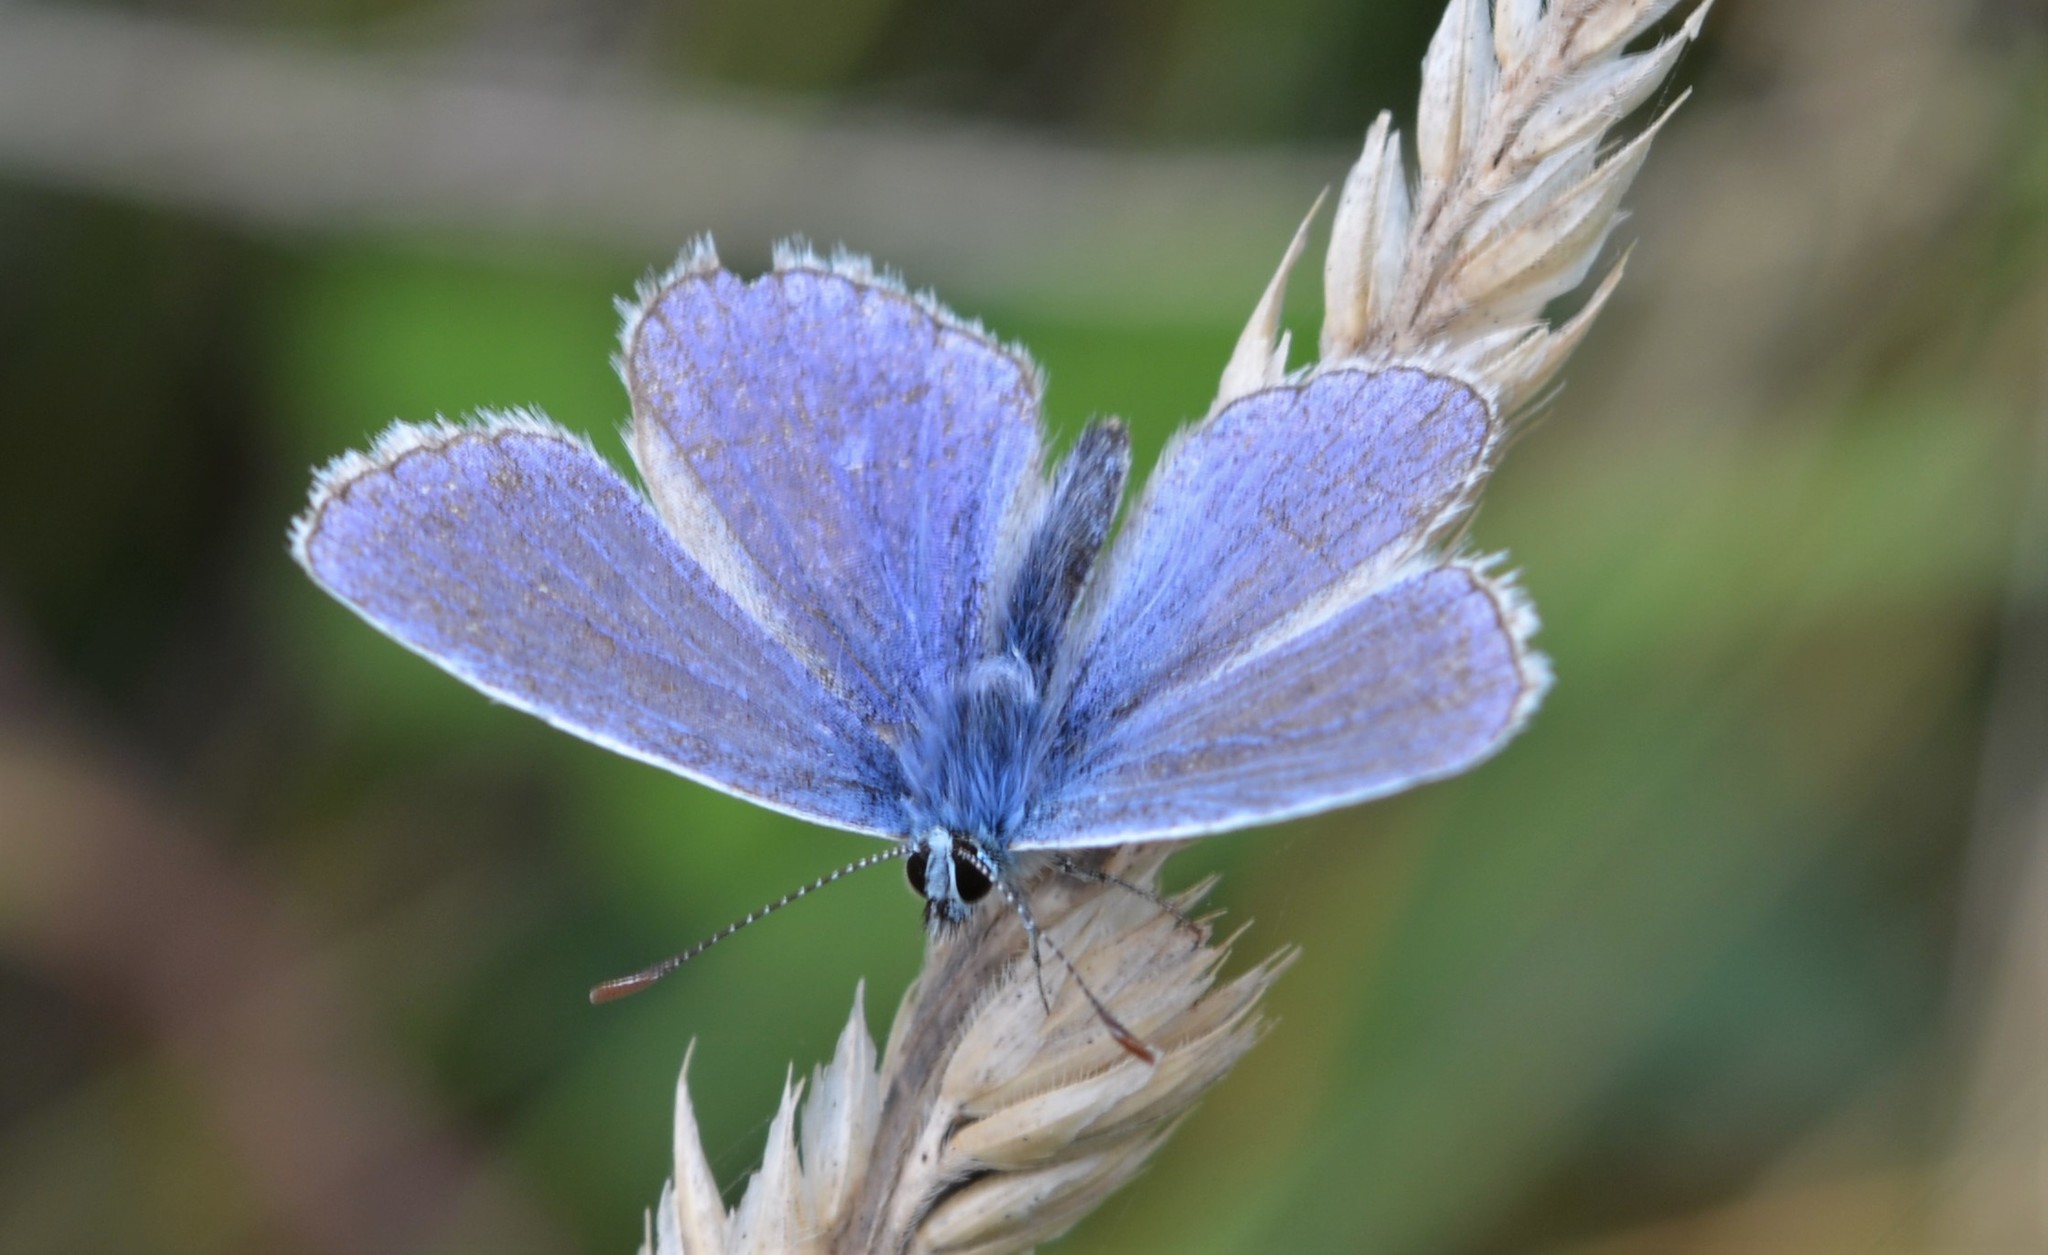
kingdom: Animalia
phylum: Arthropoda
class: Insecta
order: Lepidoptera
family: Lycaenidae
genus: Polyommatus
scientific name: Polyommatus icarus
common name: Common blue
